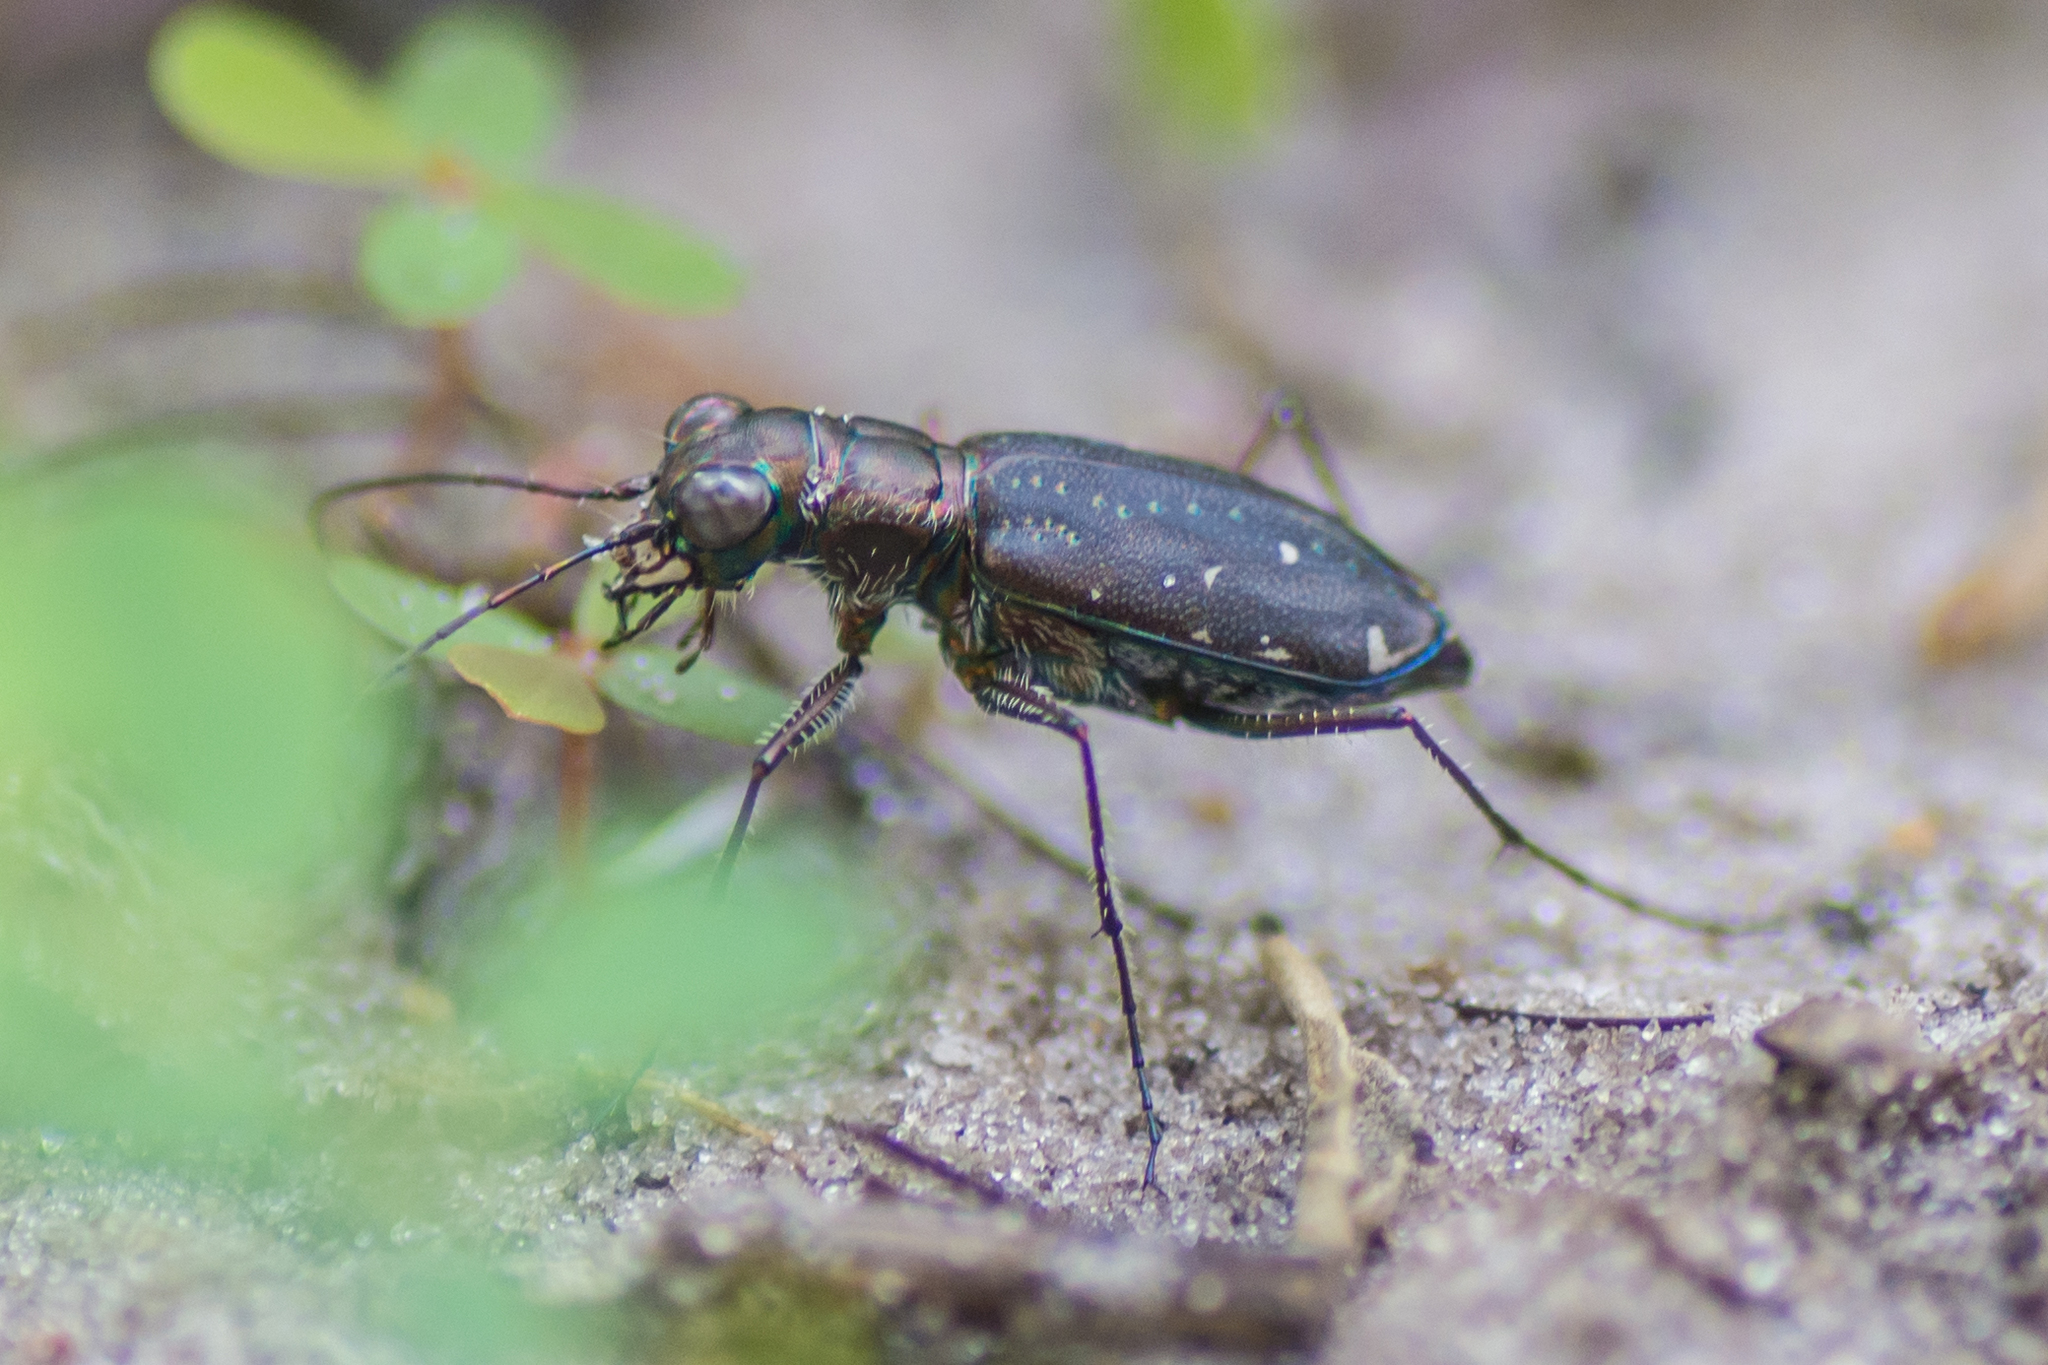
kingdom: Animalia
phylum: Arthropoda
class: Insecta
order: Coleoptera
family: Carabidae
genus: Cicindela
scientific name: Cicindela punctulata
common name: Punctured tiger beetle
